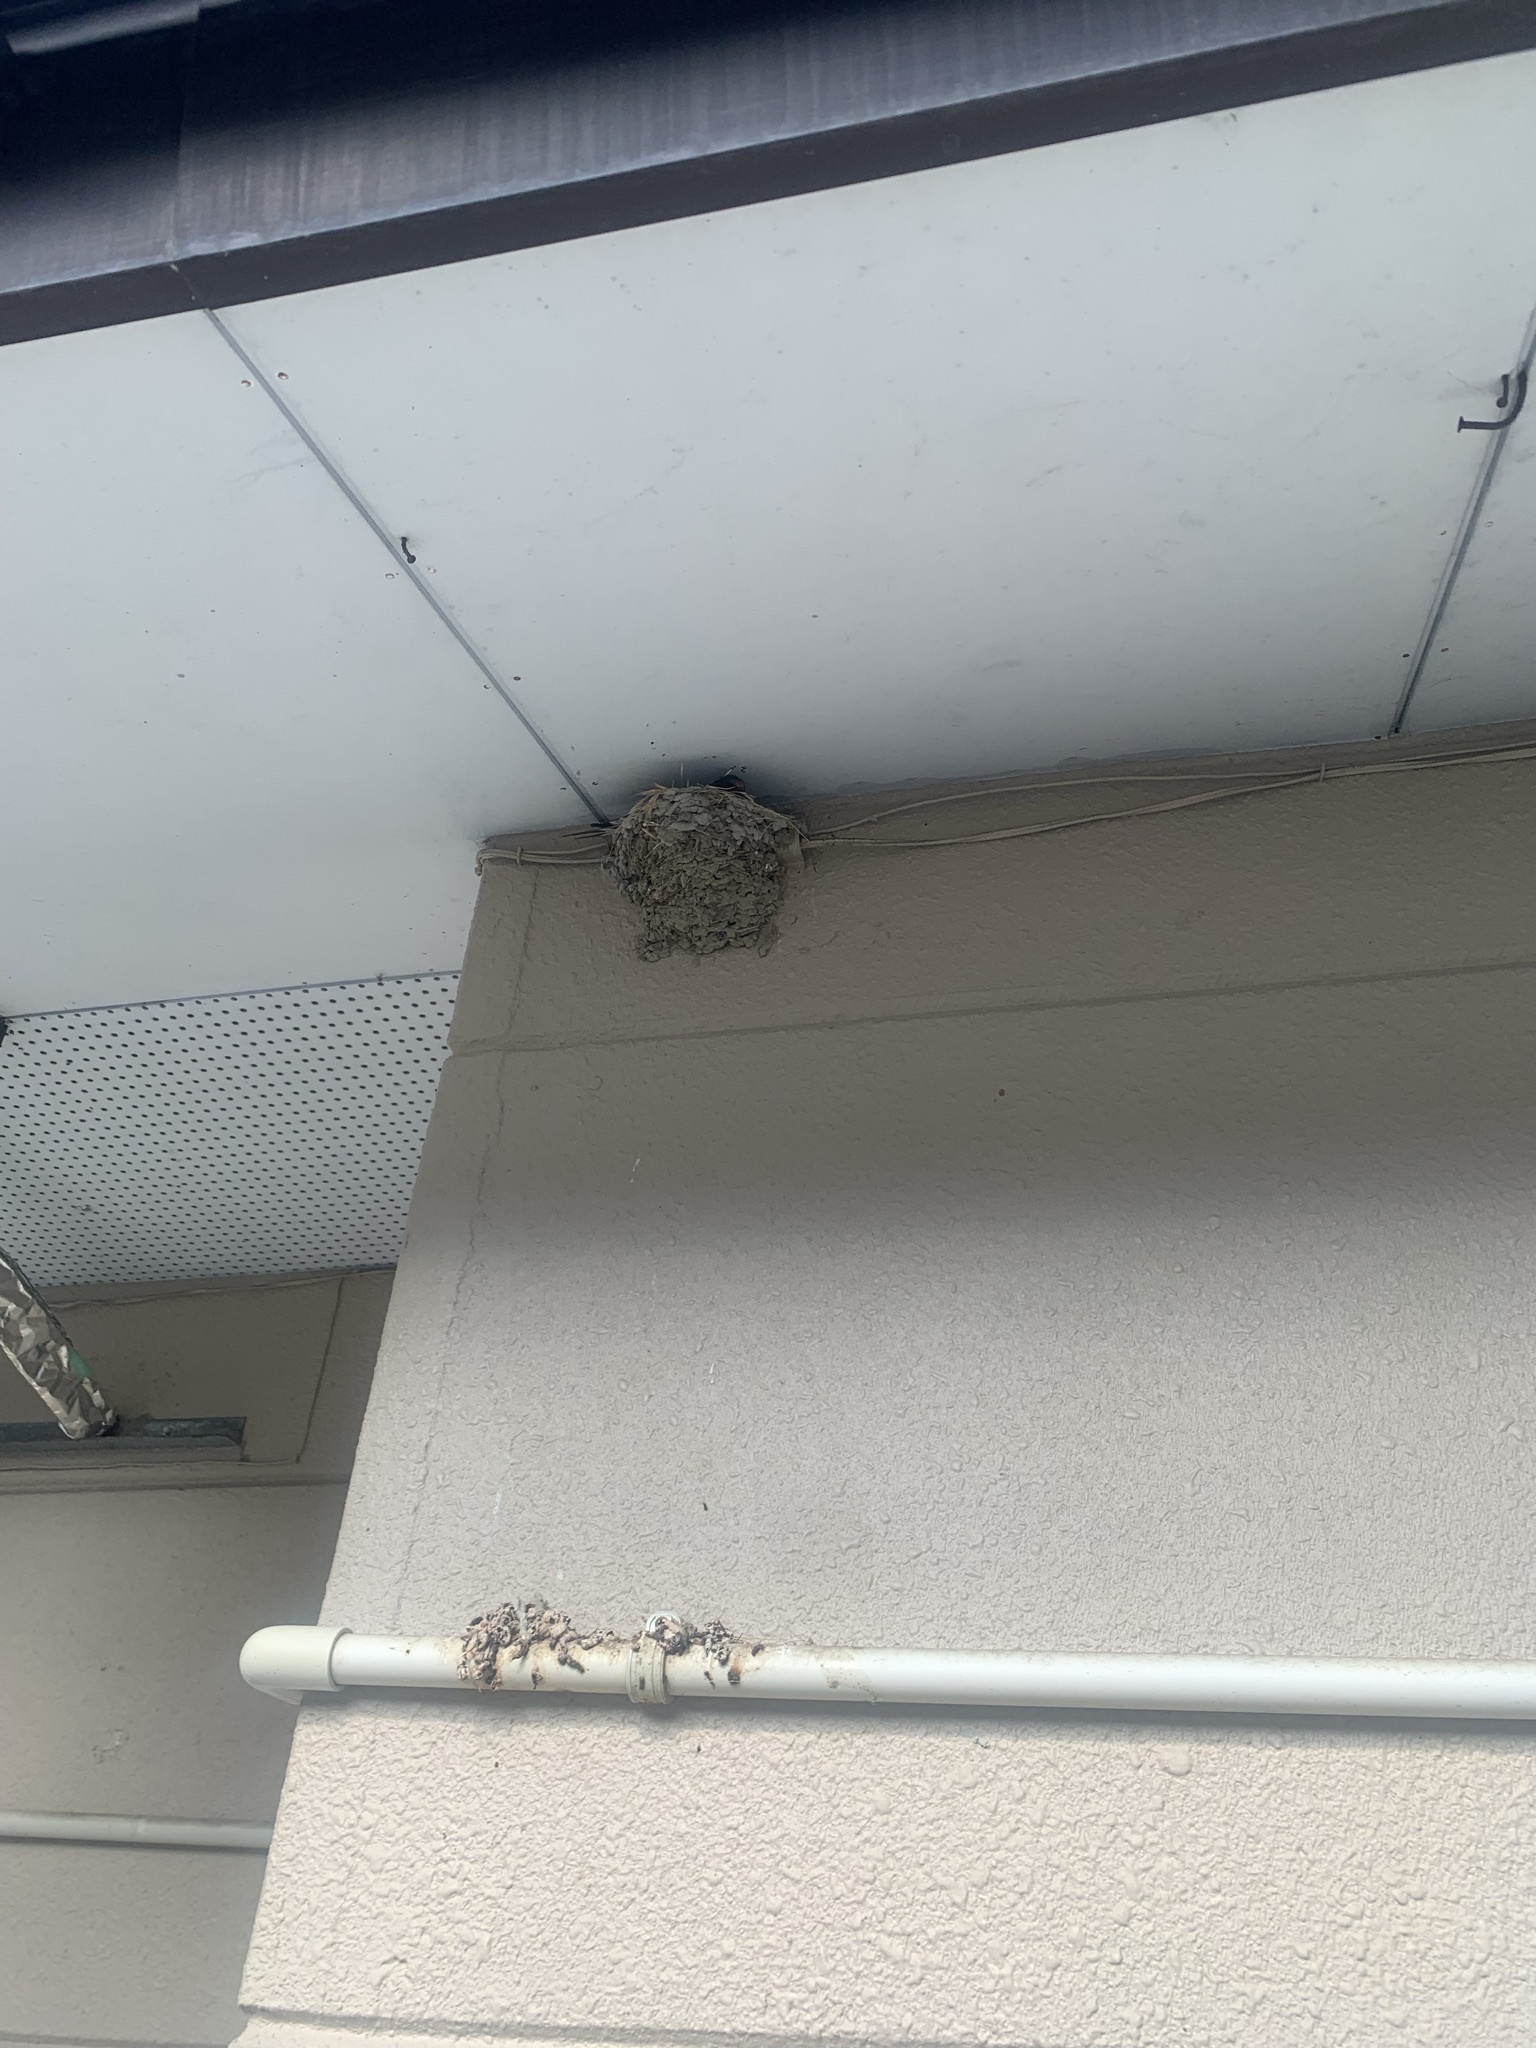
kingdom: Animalia
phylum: Chordata
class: Aves
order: Passeriformes
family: Hirundinidae
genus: Hirundo
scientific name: Hirundo rustica
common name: Barn swallow
